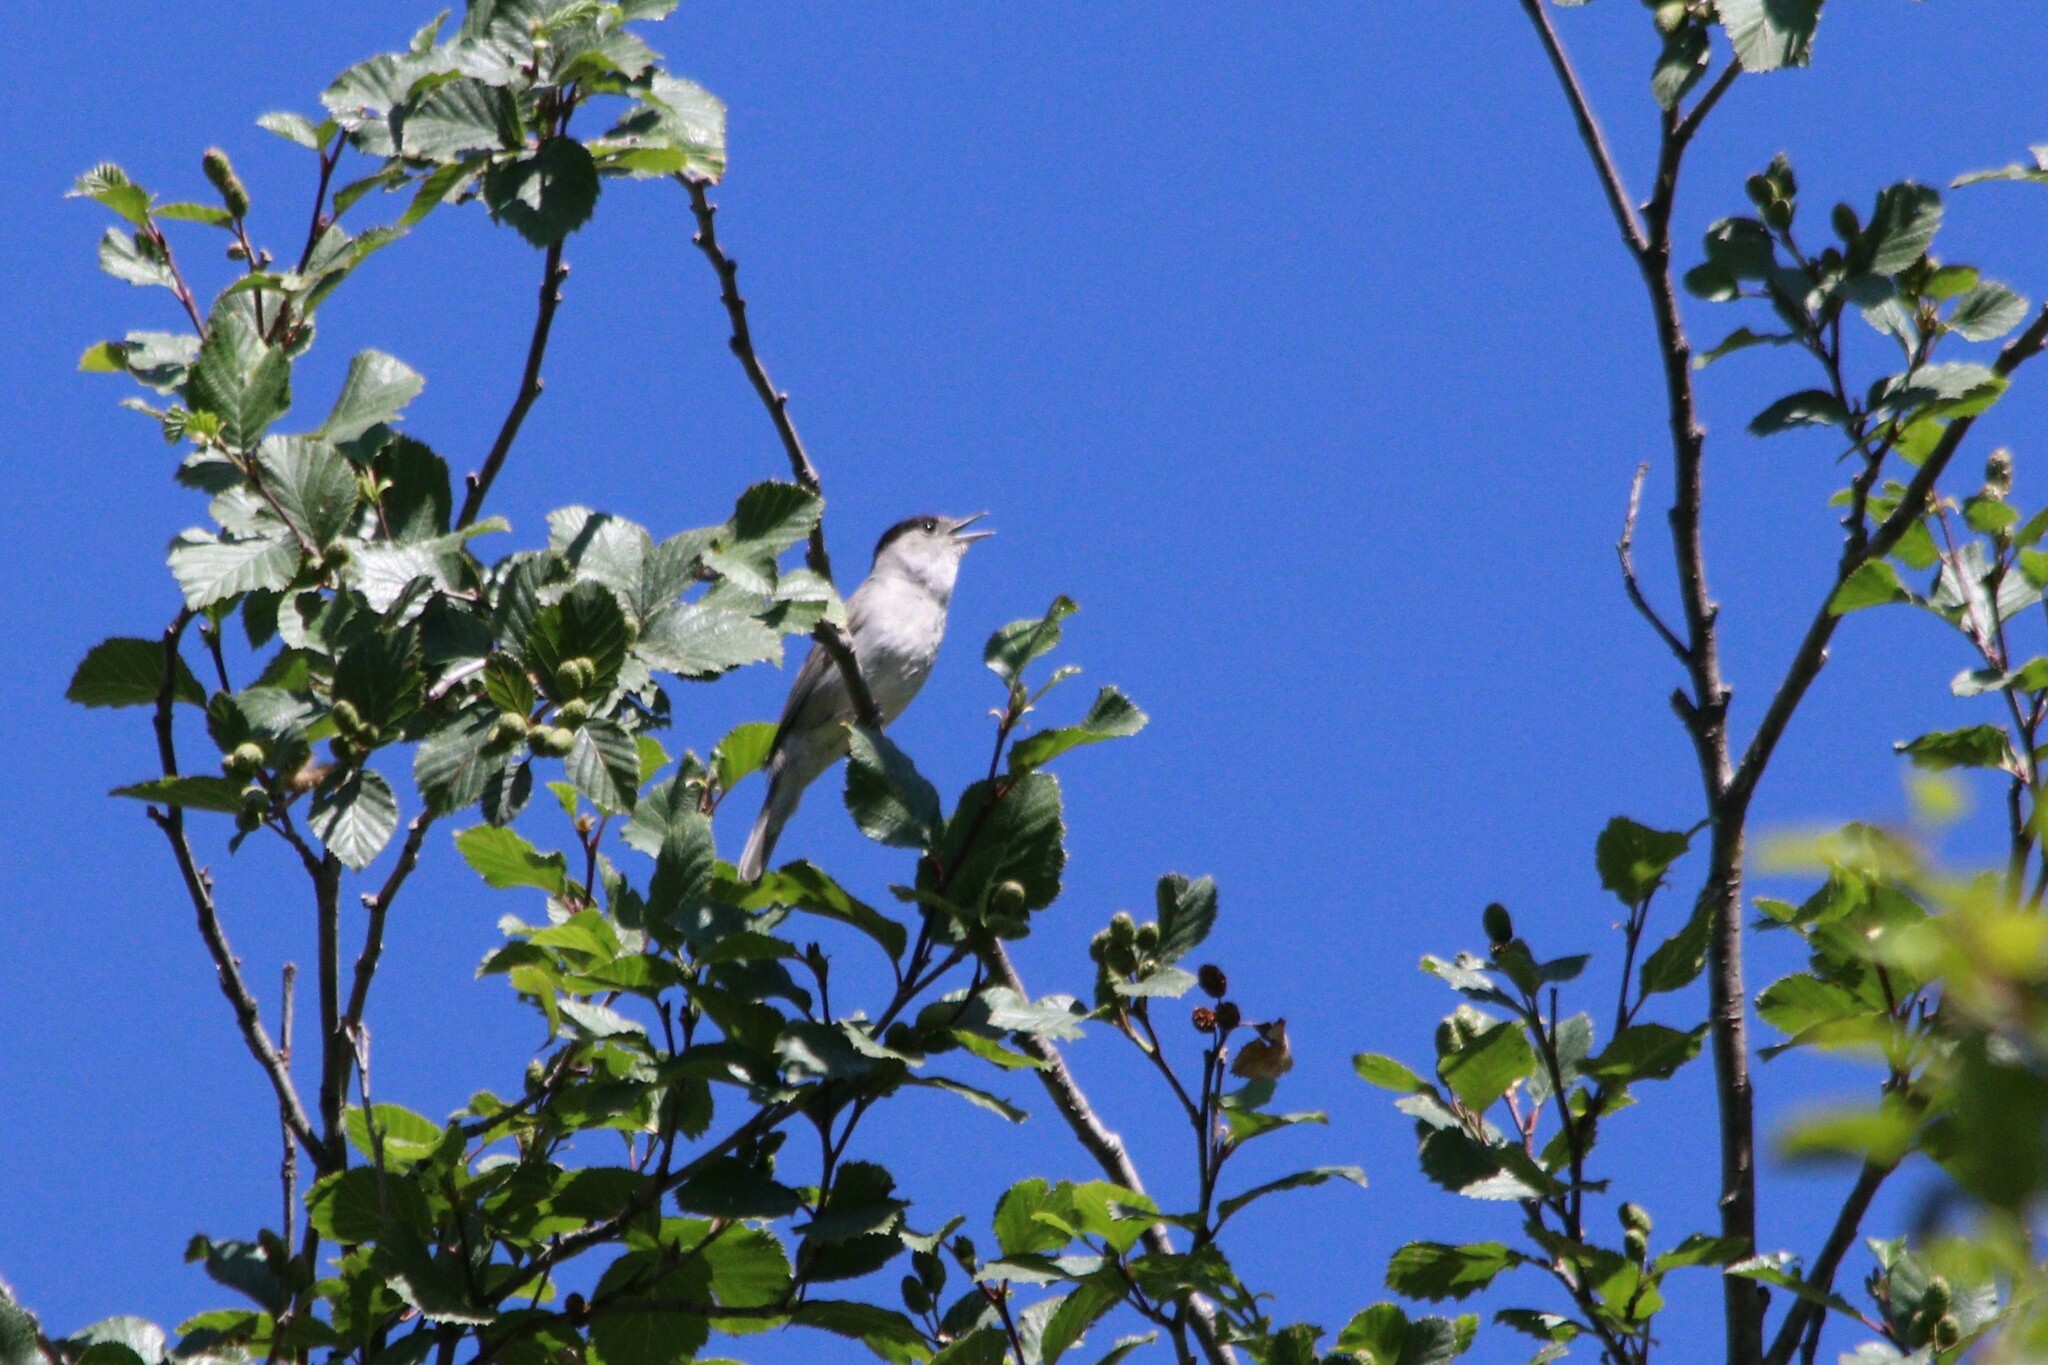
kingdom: Animalia
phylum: Chordata
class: Aves
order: Passeriformes
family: Sylviidae
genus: Sylvia
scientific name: Sylvia atricapilla
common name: Eurasian blackcap
